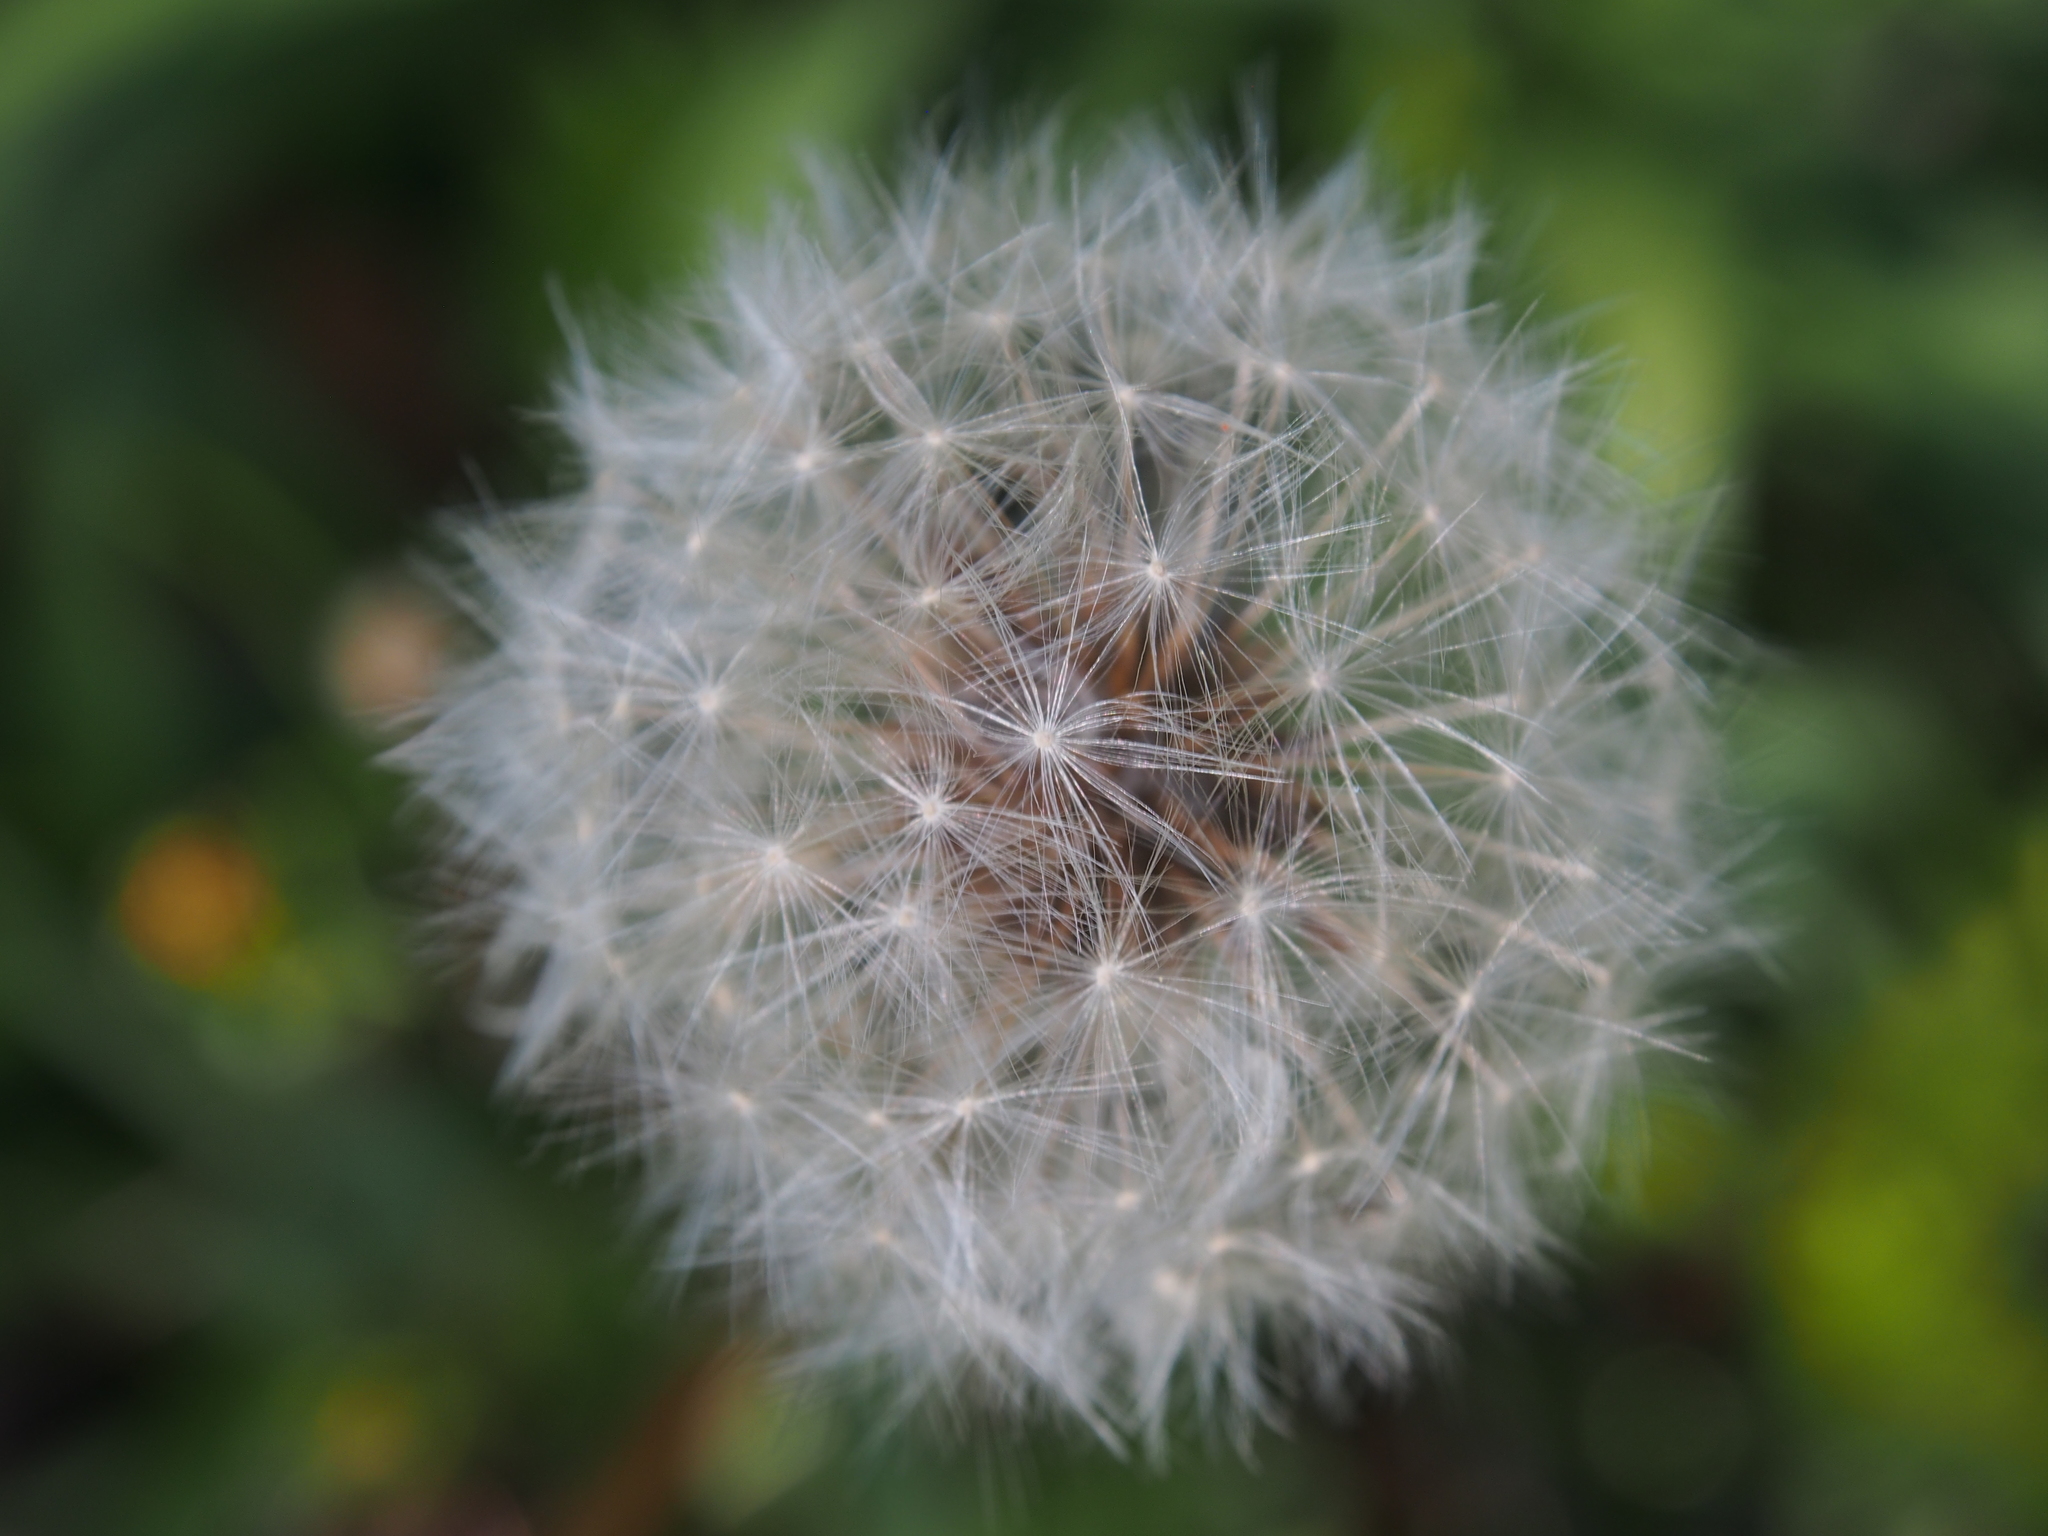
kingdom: Plantae
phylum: Tracheophyta
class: Magnoliopsida
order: Asterales
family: Asteraceae
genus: Taraxacum
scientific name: Taraxacum officinale
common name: Common dandelion
